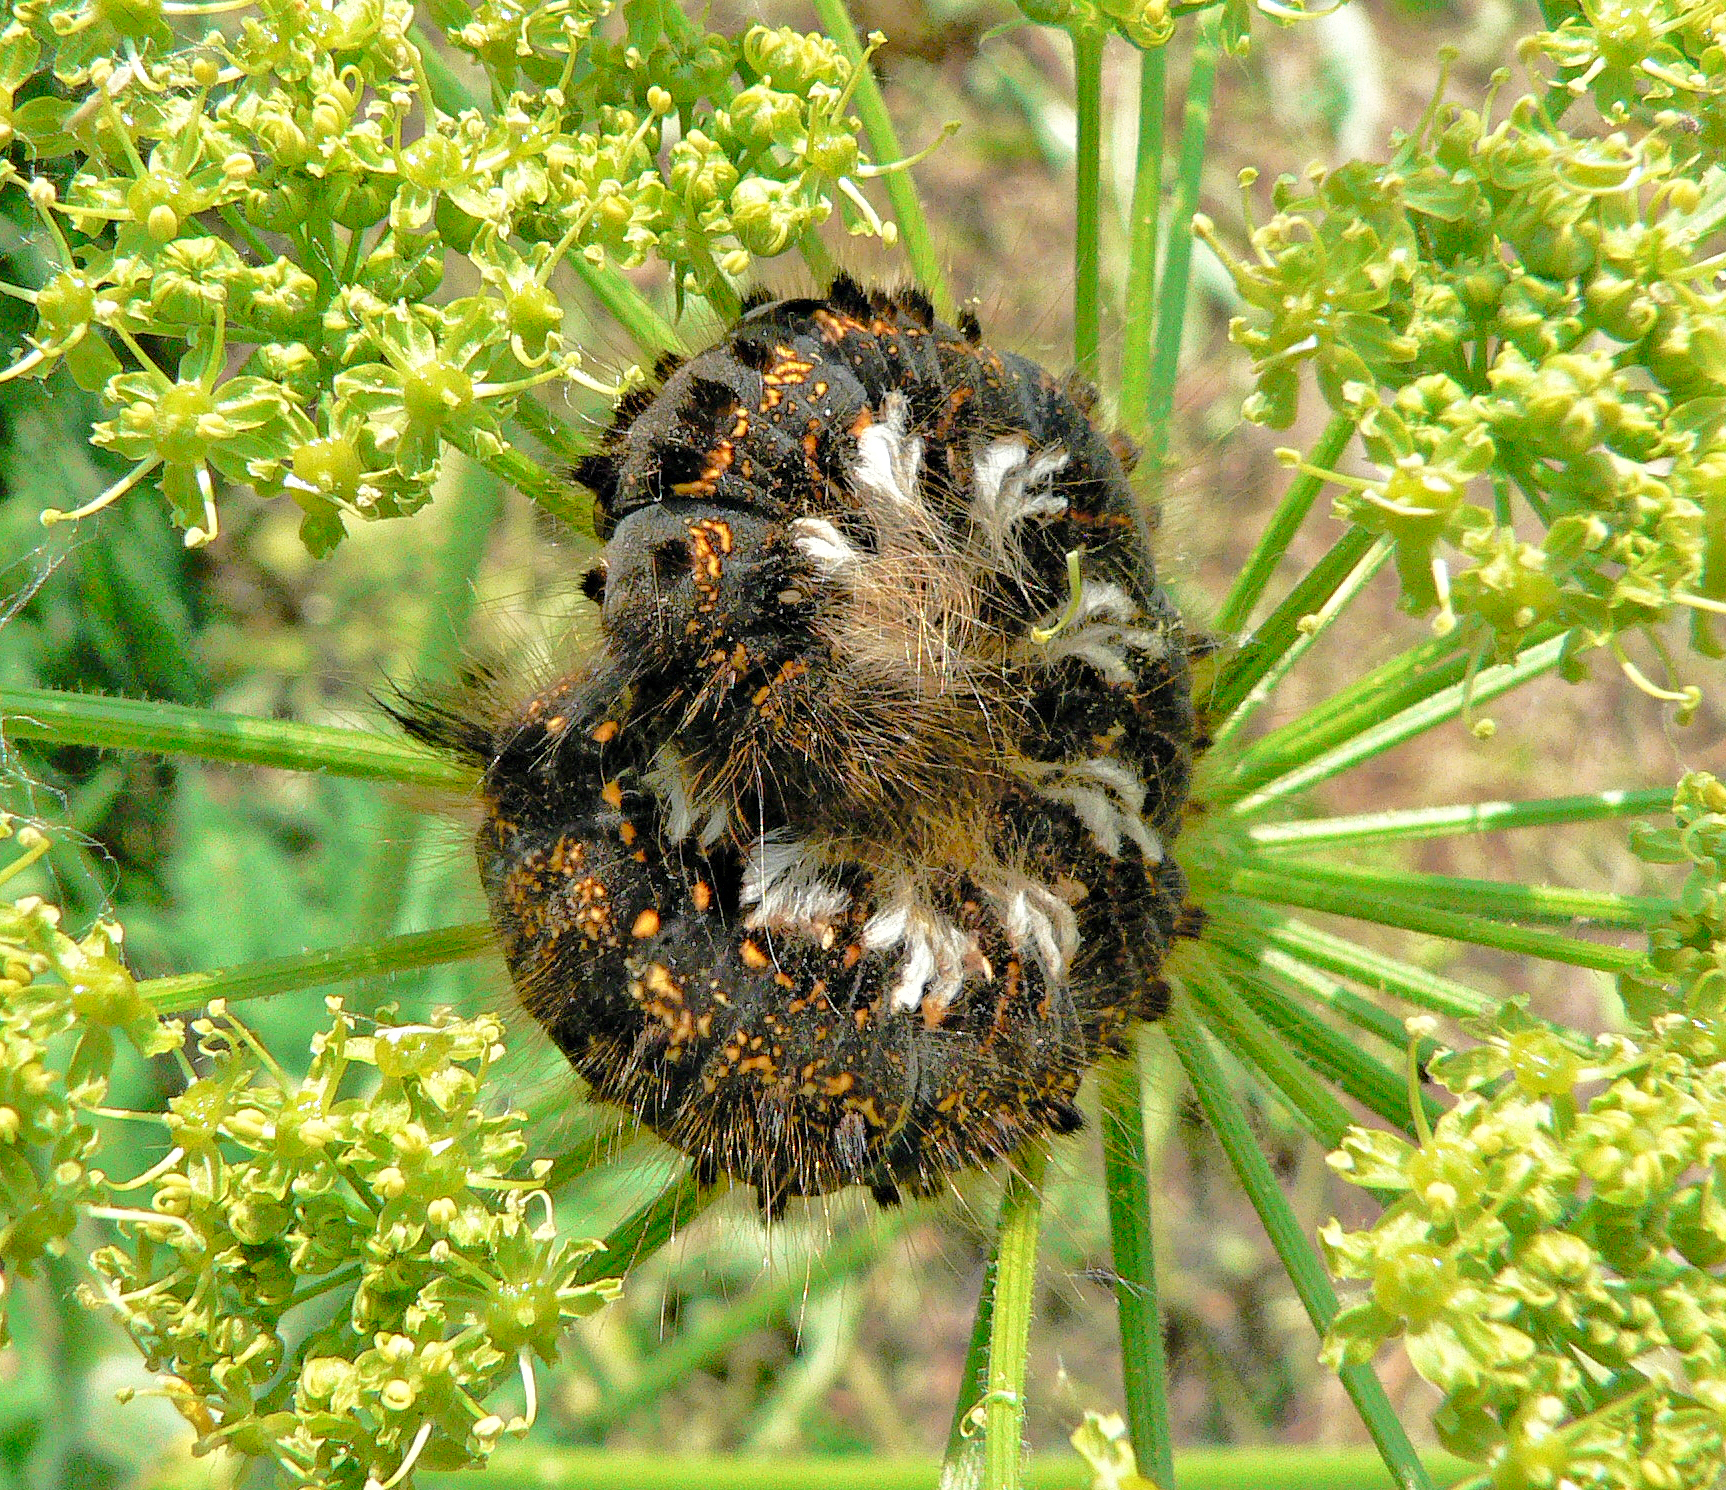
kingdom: Animalia
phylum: Arthropoda
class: Insecta
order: Lepidoptera
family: Lasiocampidae
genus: Euthrix
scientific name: Euthrix potatoria
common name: Drinker
